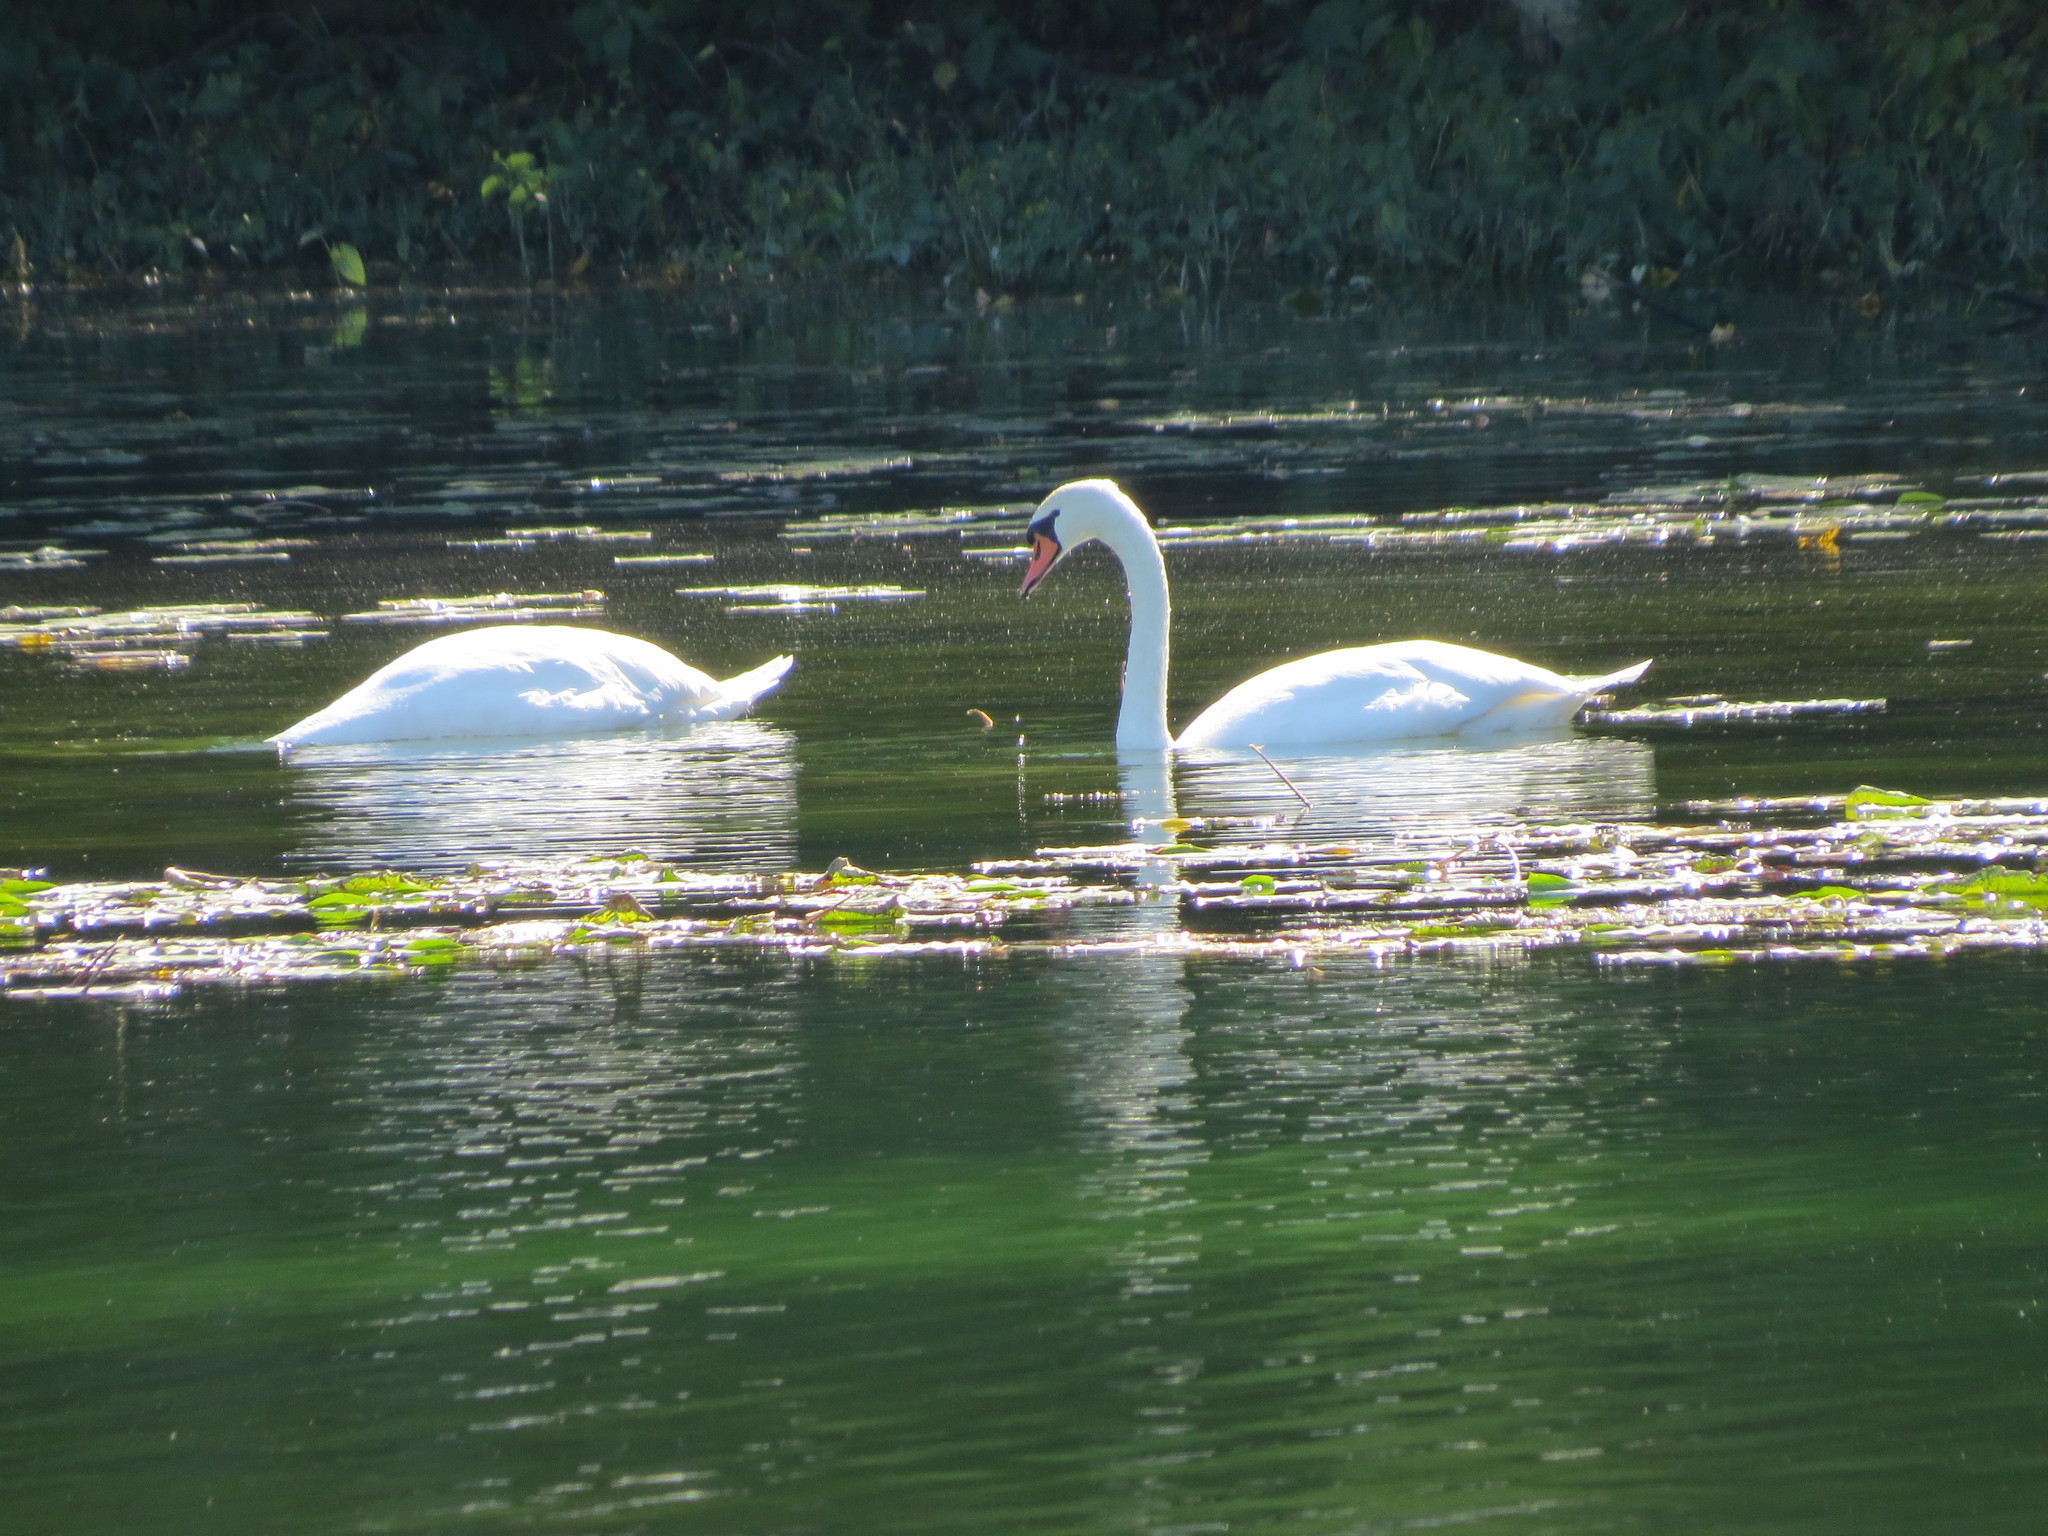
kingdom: Animalia
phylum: Chordata
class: Aves
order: Anseriformes
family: Anatidae
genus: Cygnus
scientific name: Cygnus olor
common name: Mute swan
